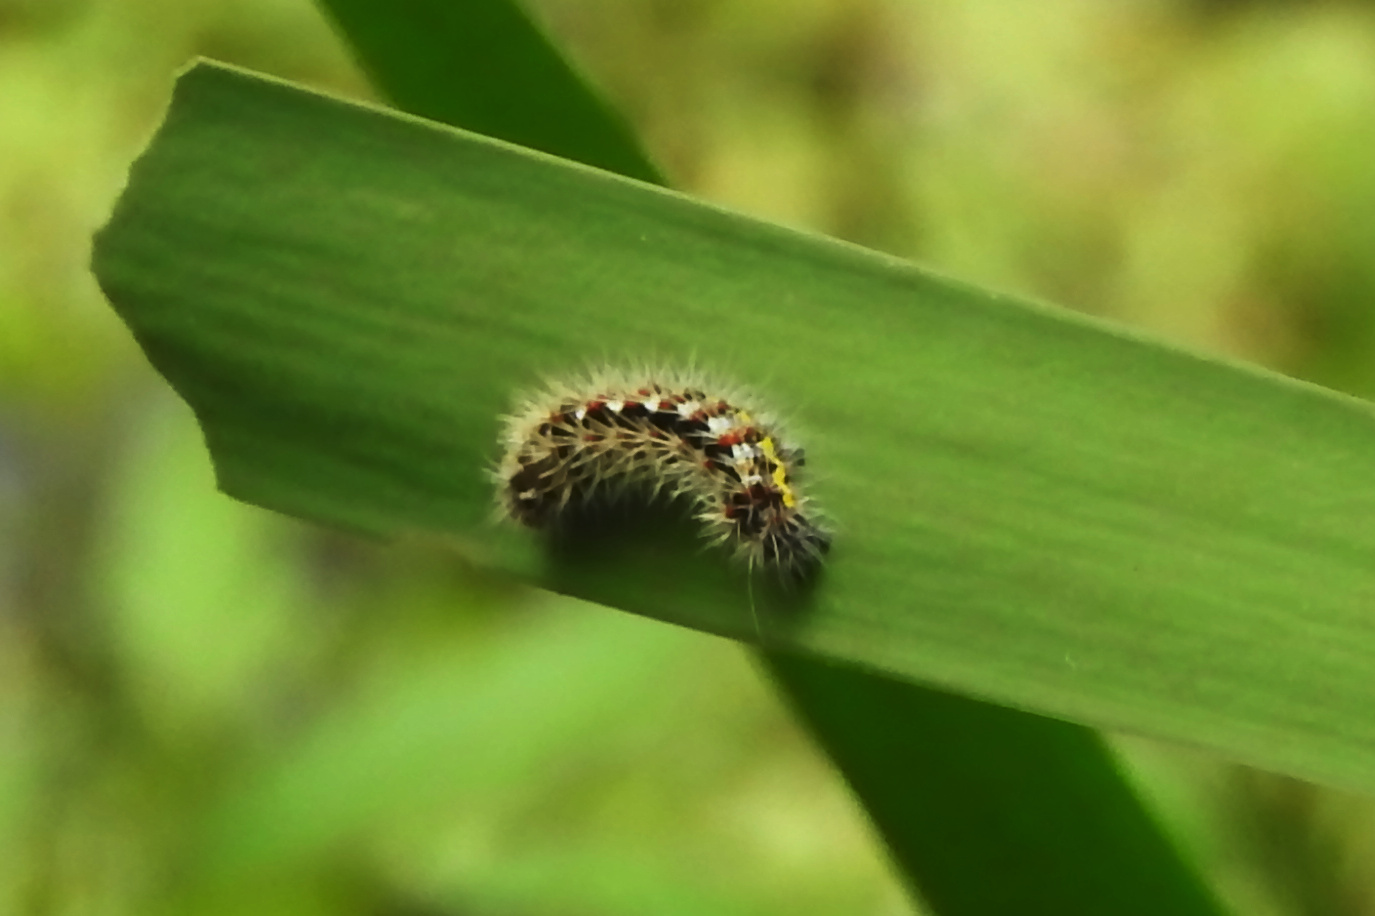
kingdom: Animalia
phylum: Arthropoda
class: Insecta
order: Lepidoptera
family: Noctuidae
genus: Acronicta
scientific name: Acronicta oblinita
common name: Smeared dagger
